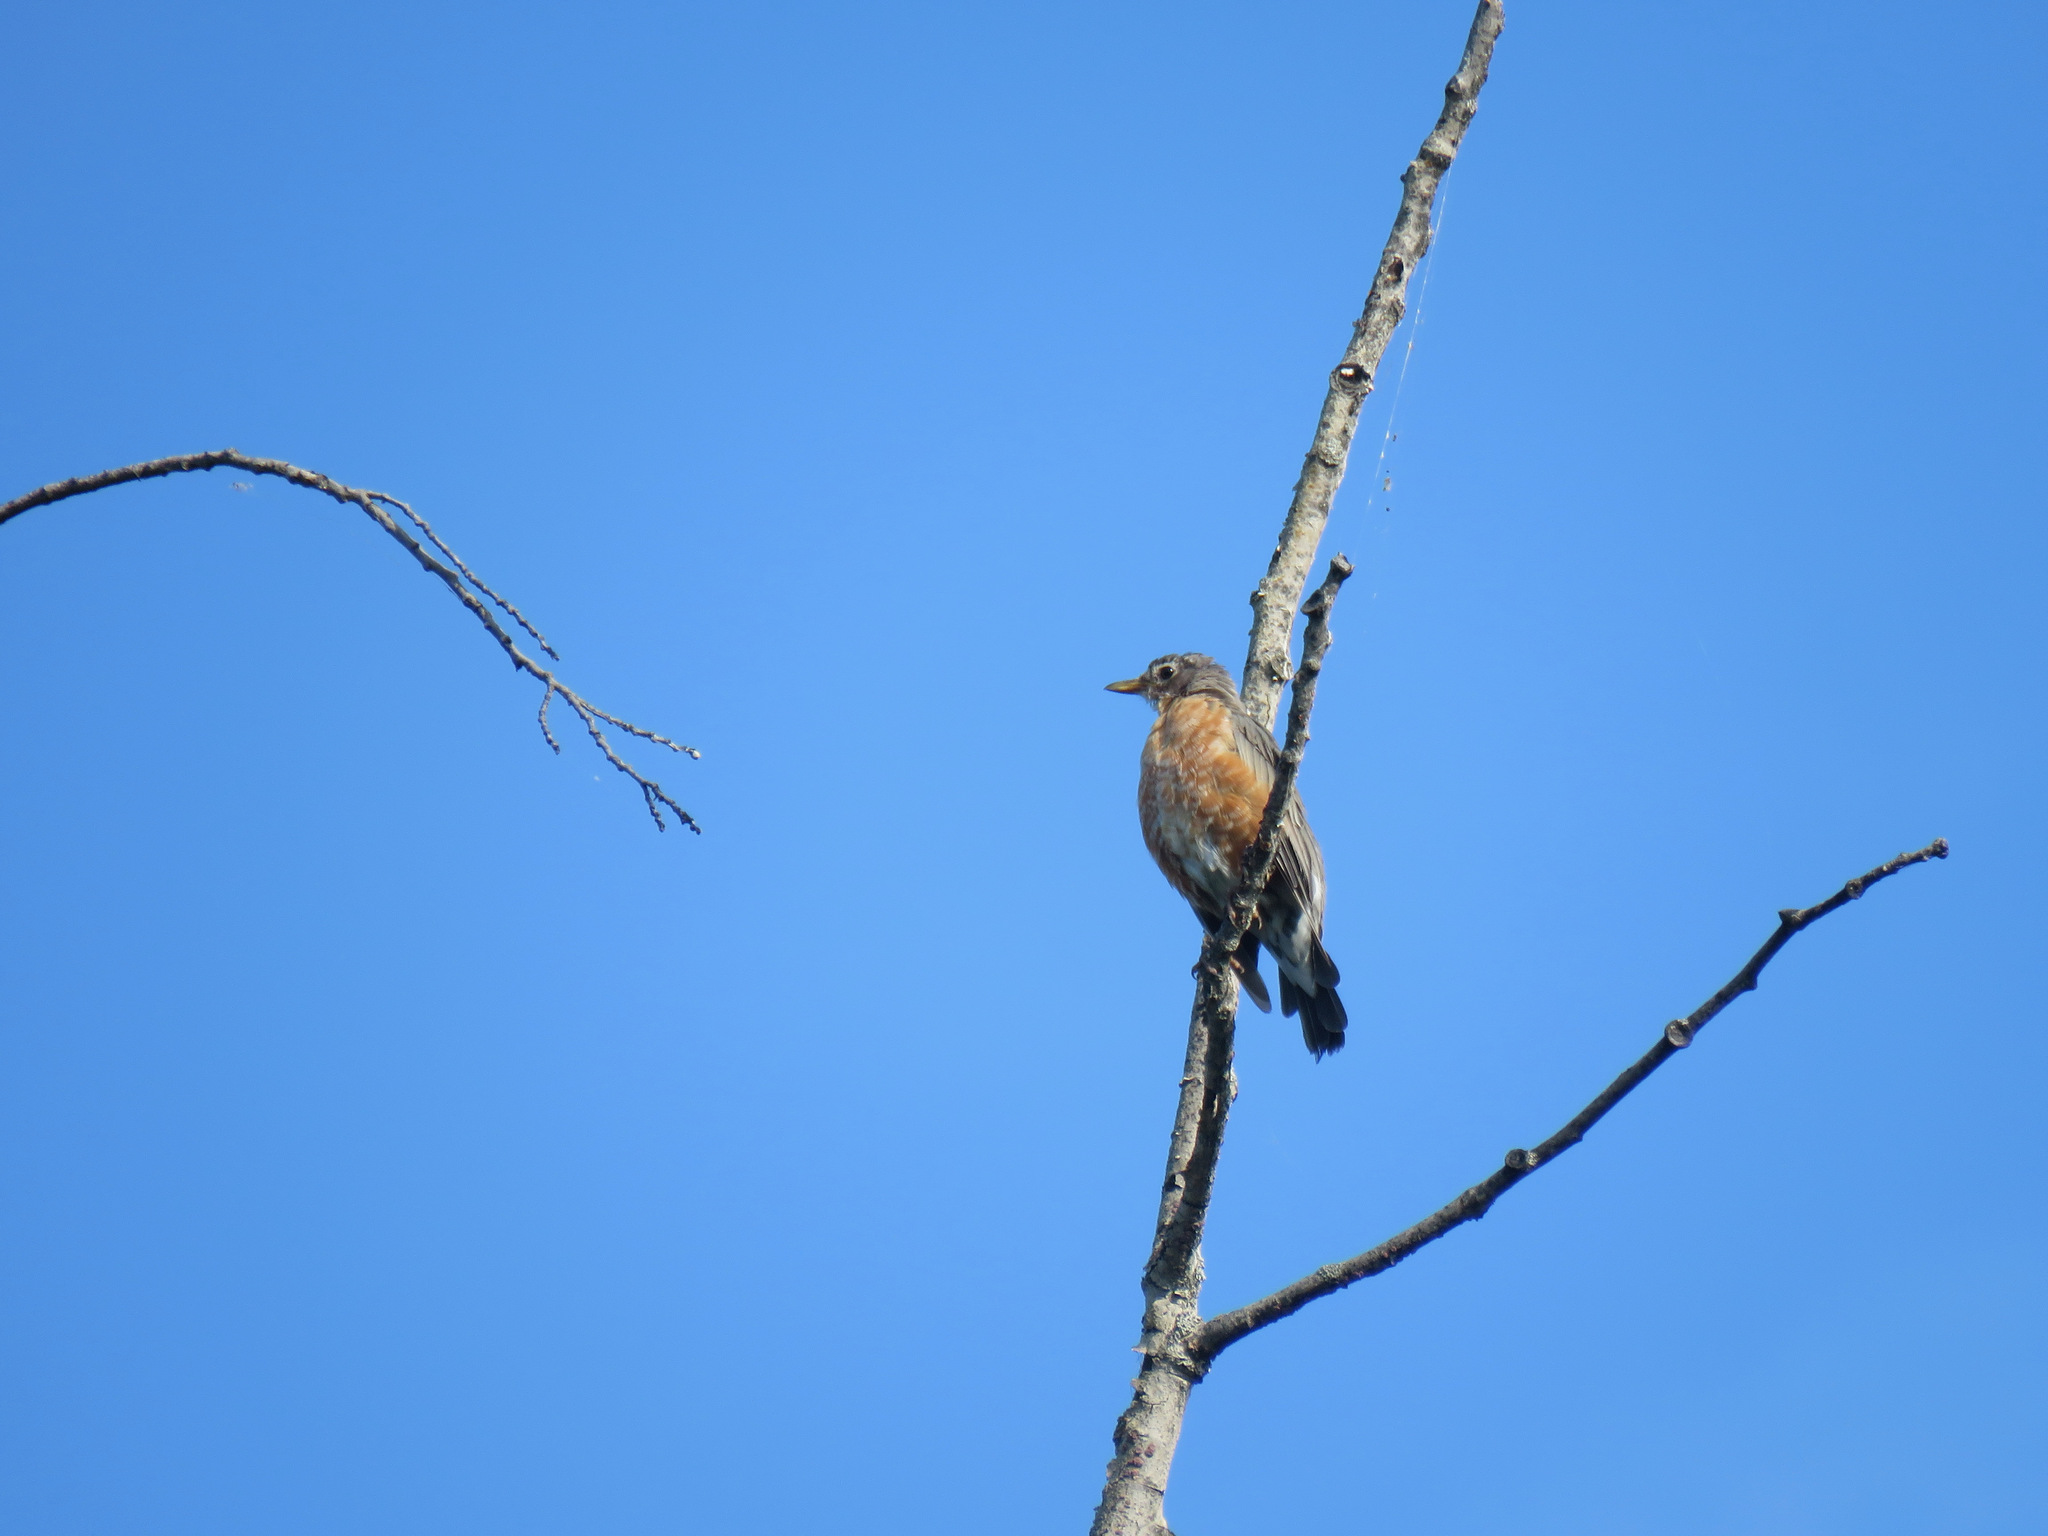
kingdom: Animalia
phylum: Chordata
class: Aves
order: Passeriformes
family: Turdidae
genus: Turdus
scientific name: Turdus migratorius
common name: American robin
